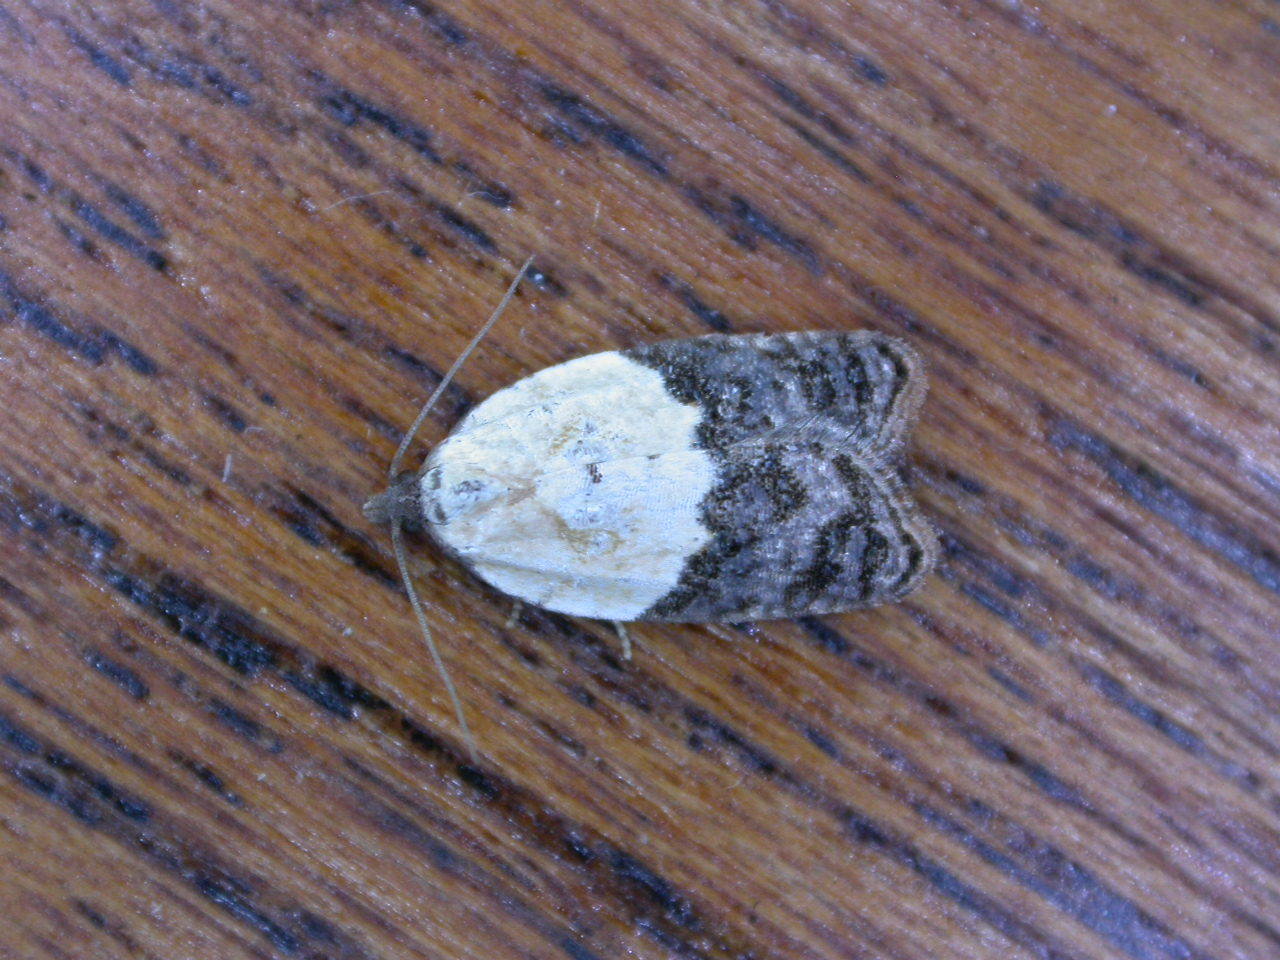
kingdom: Animalia
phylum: Arthropoda
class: Insecta
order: Lepidoptera
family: Tortricidae
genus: Acleris
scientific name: Acleris variegana
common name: Garden rose tortrix
